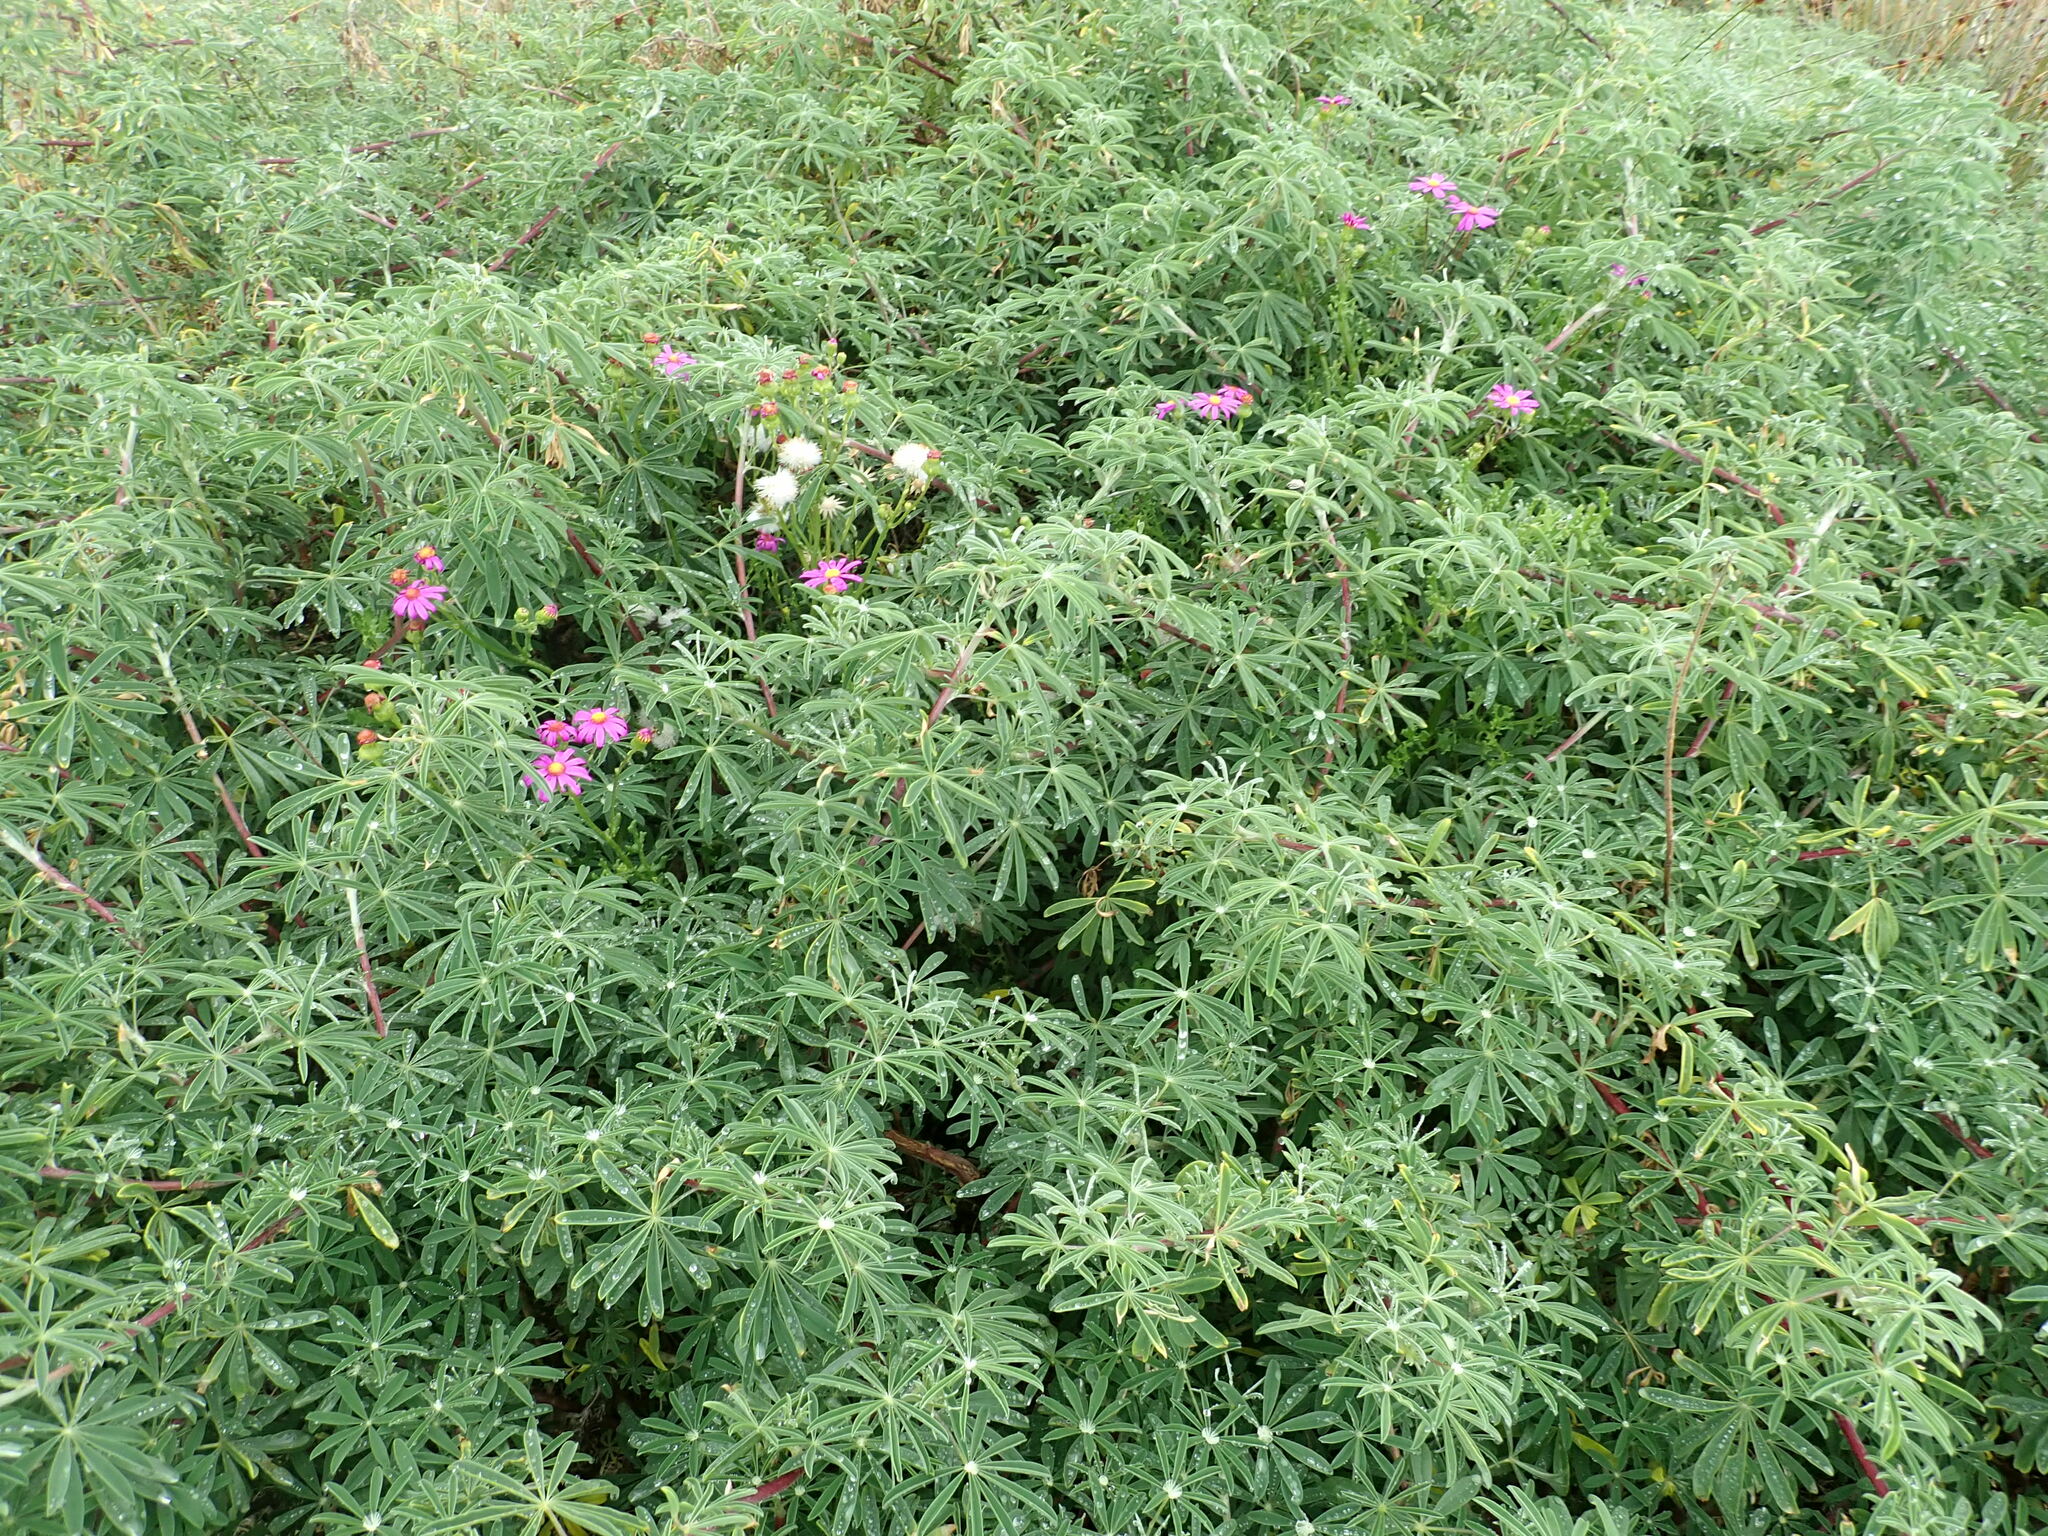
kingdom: Plantae
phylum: Tracheophyta
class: Magnoliopsida
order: Asterales
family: Asteraceae
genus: Senecio
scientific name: Senecio elegans
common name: Purple groundsel
